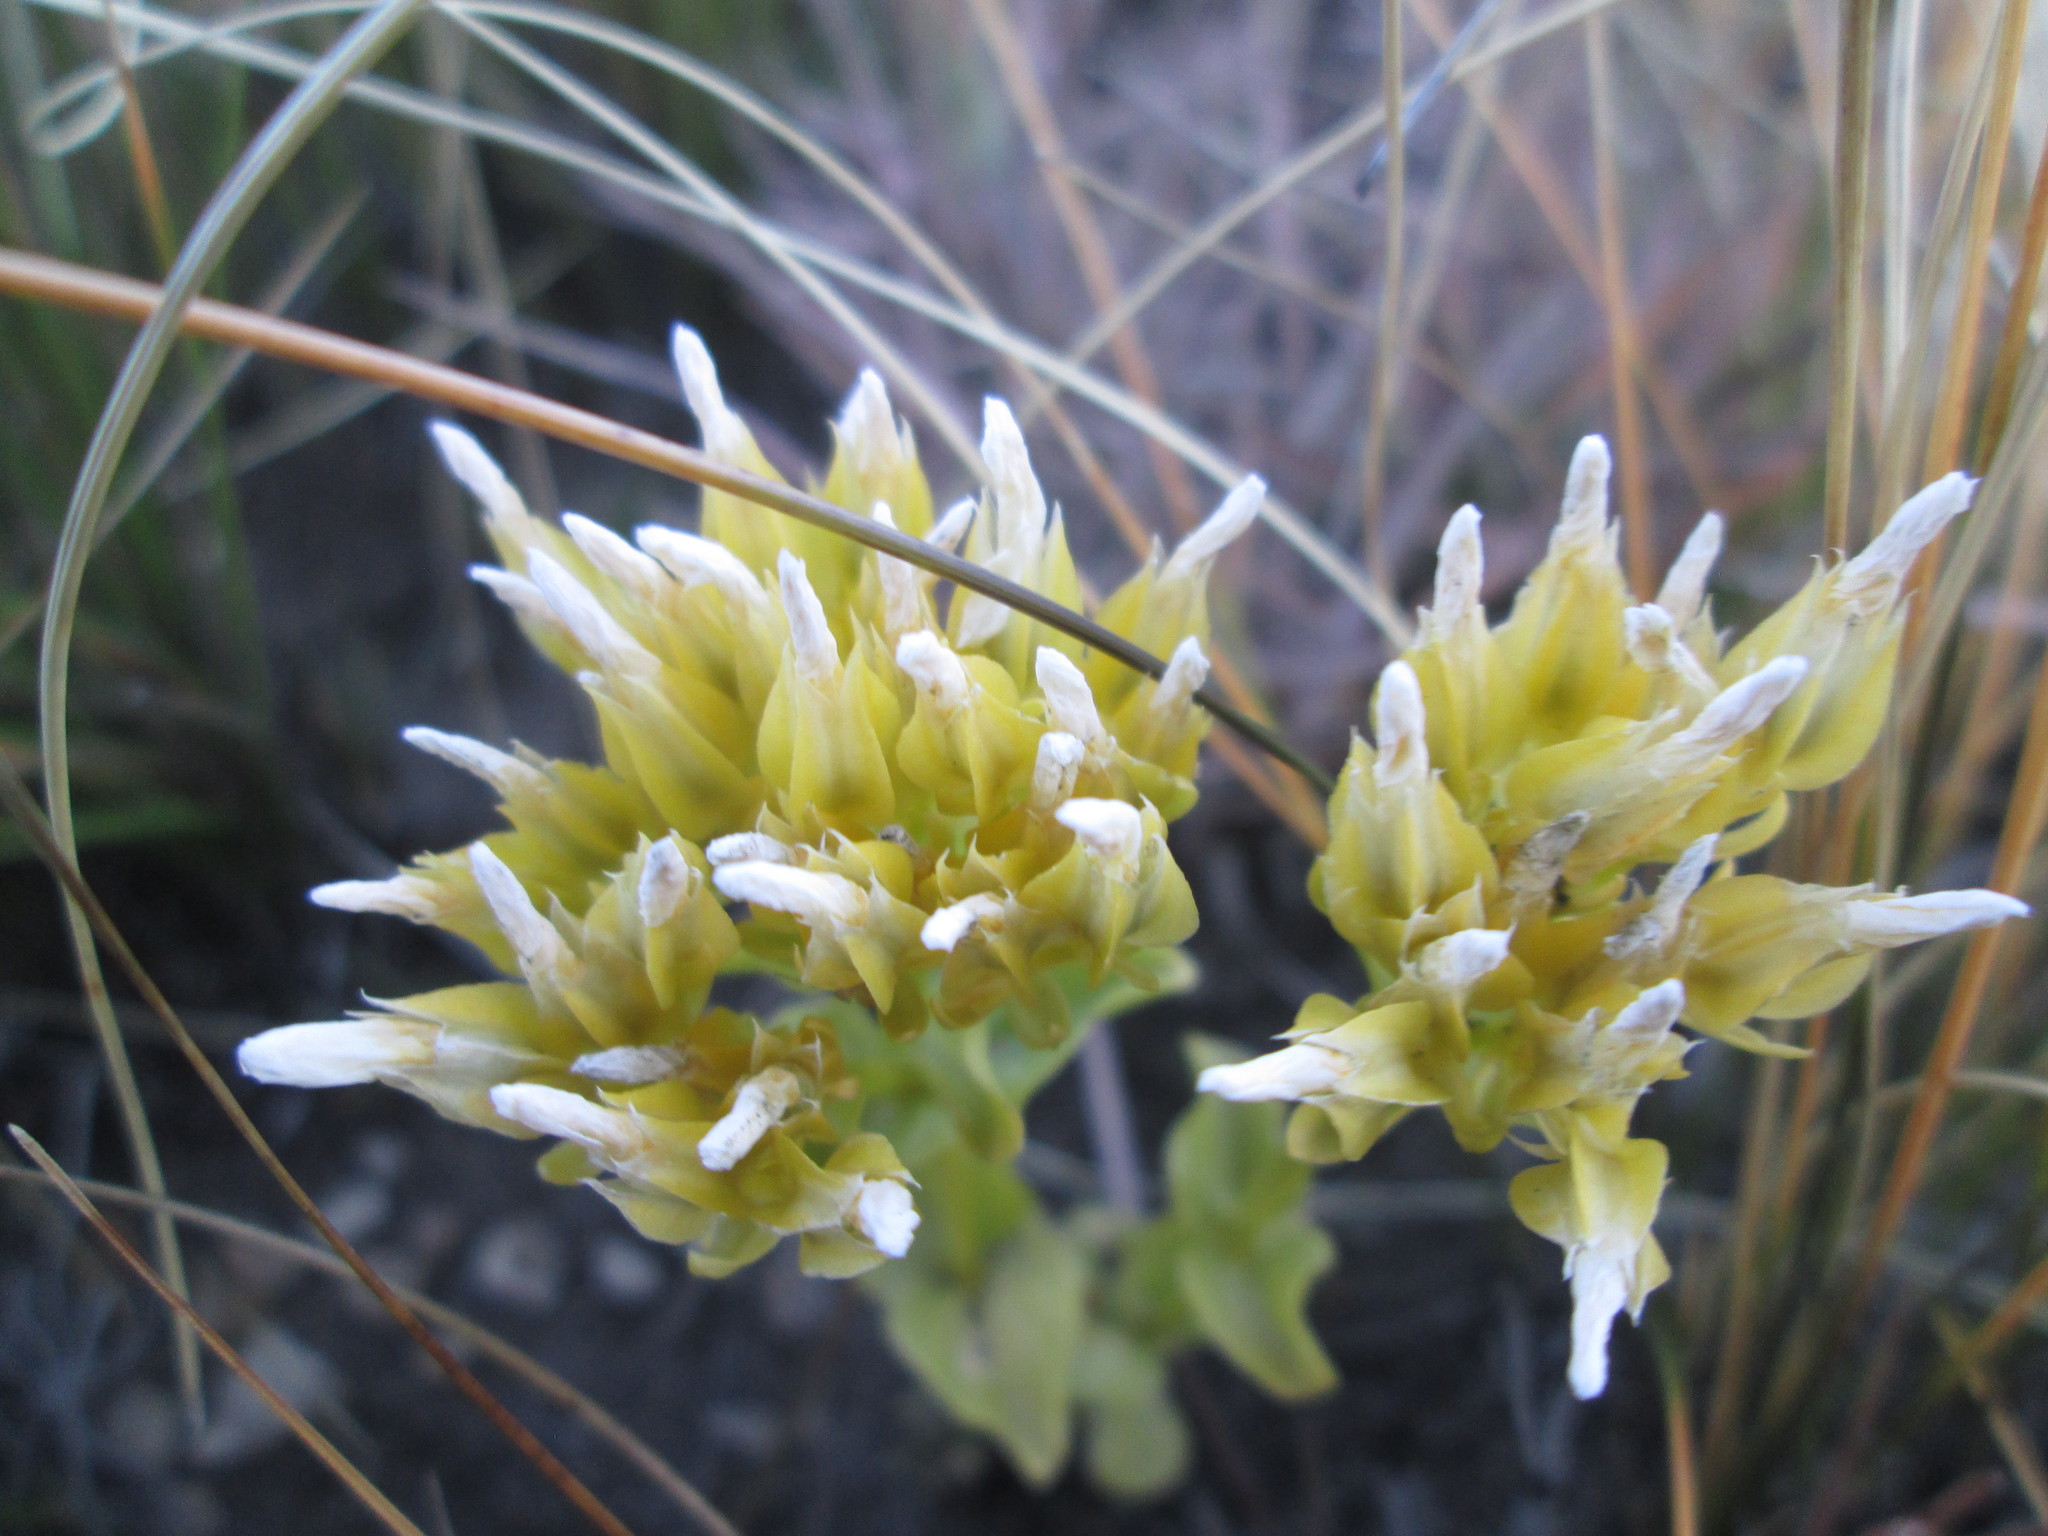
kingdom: Plantae
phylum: Tracheophyta
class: Magnoliopsida
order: Gentianales
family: Gentianaceae
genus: Sebaea
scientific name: Sebaea sedoides
